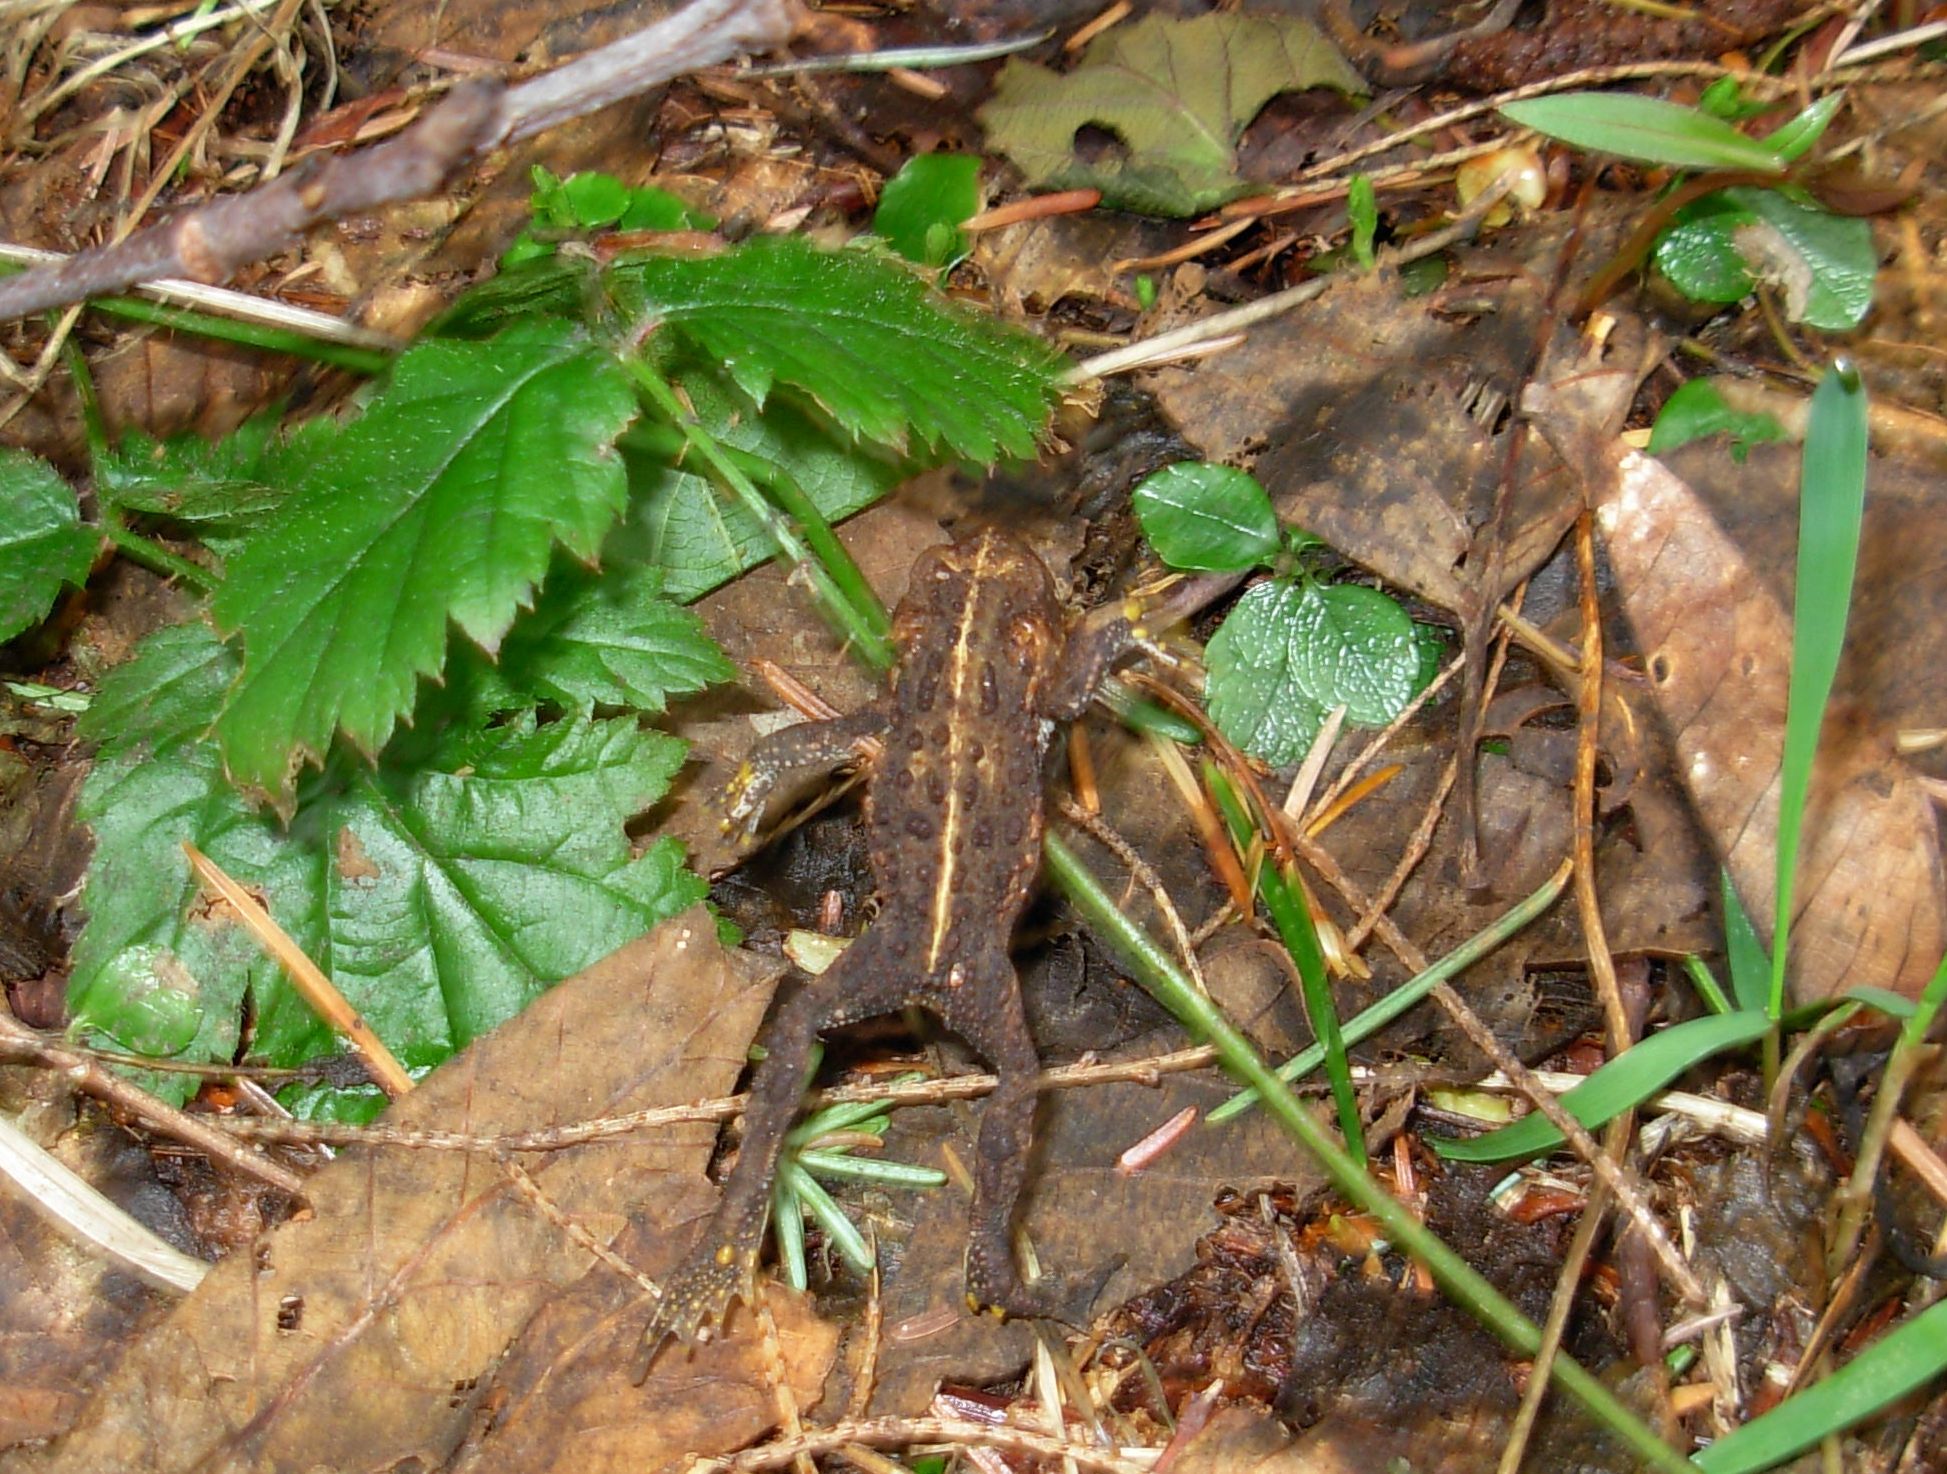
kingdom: Animalia
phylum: Chordata
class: Amphibia
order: Anura
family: Bufonidae
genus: Anaxyrus
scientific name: Anaxyrus boreas
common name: Western toad
